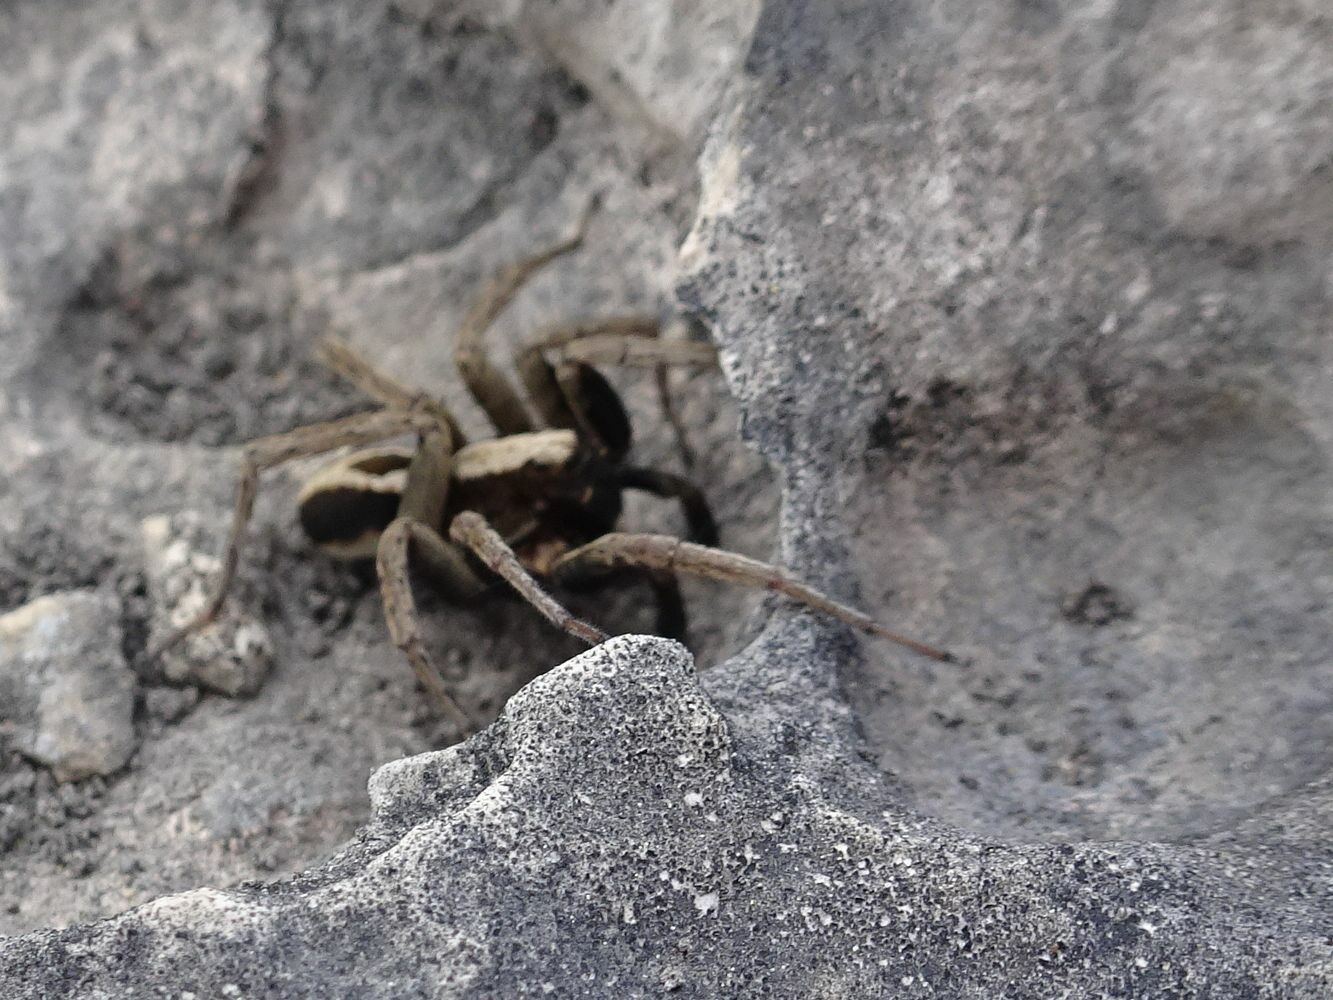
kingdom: Animalia
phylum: Arthropoda
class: Arachnida
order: Araneae
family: Lycosidae
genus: Alopecosa
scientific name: Alopecosa albofasciata
